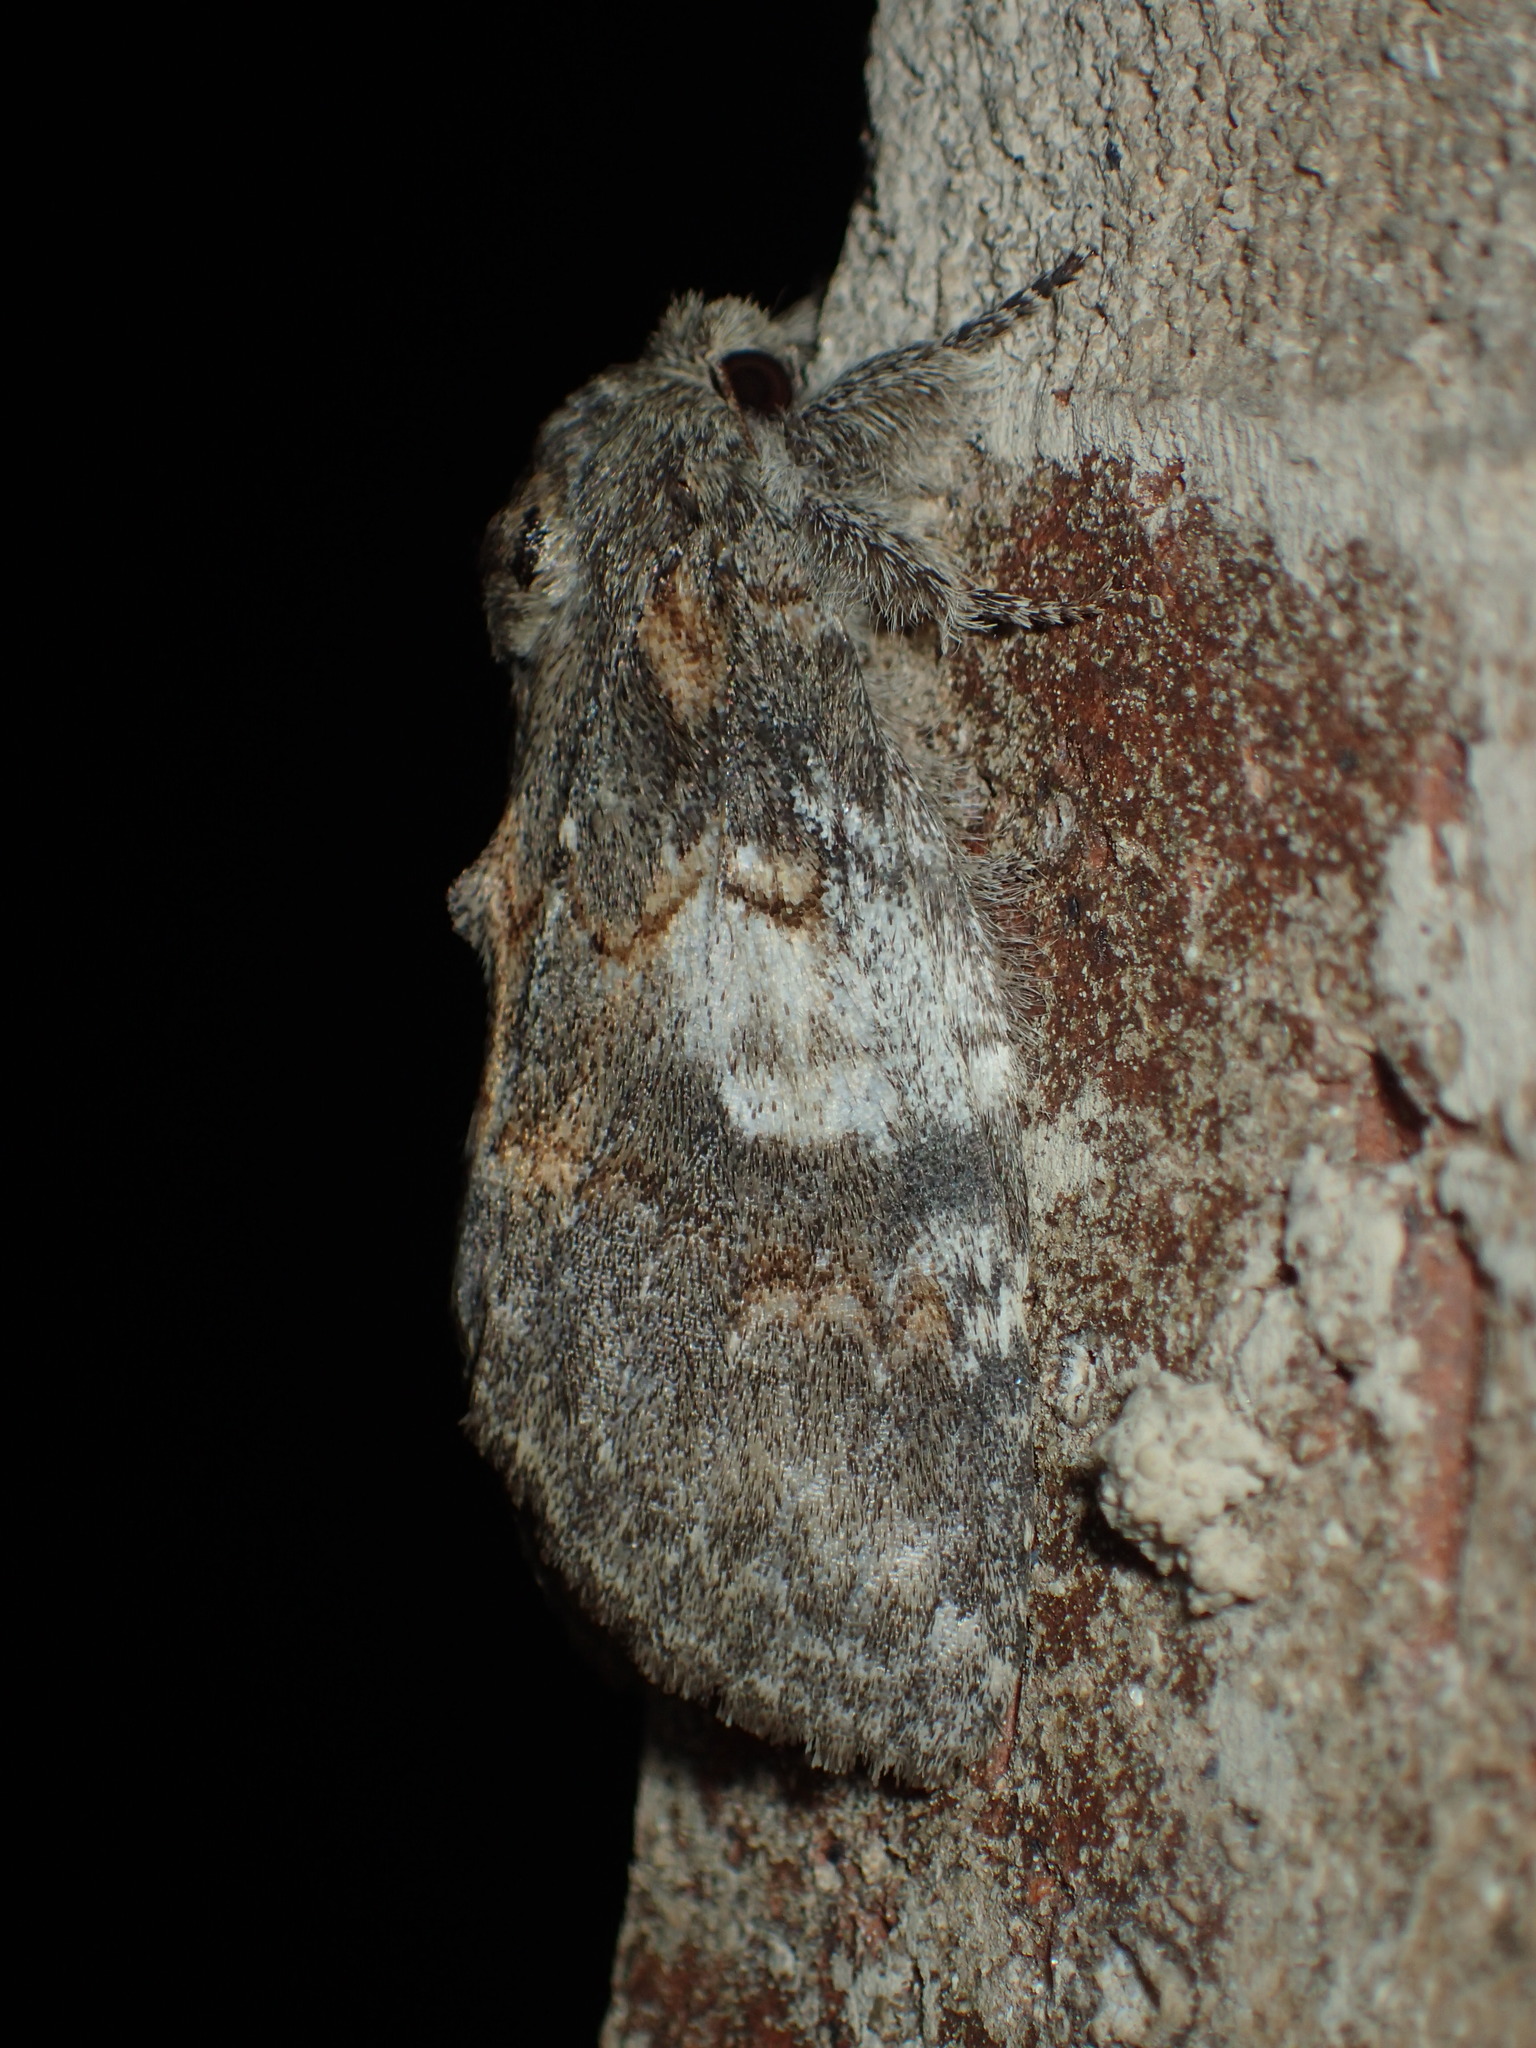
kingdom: Animalia
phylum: Arthropoda
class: Insecta
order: Lepidoptera
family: Notodontidae
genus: Peridea
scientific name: Peridea angulosa
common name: Angulose prominent
